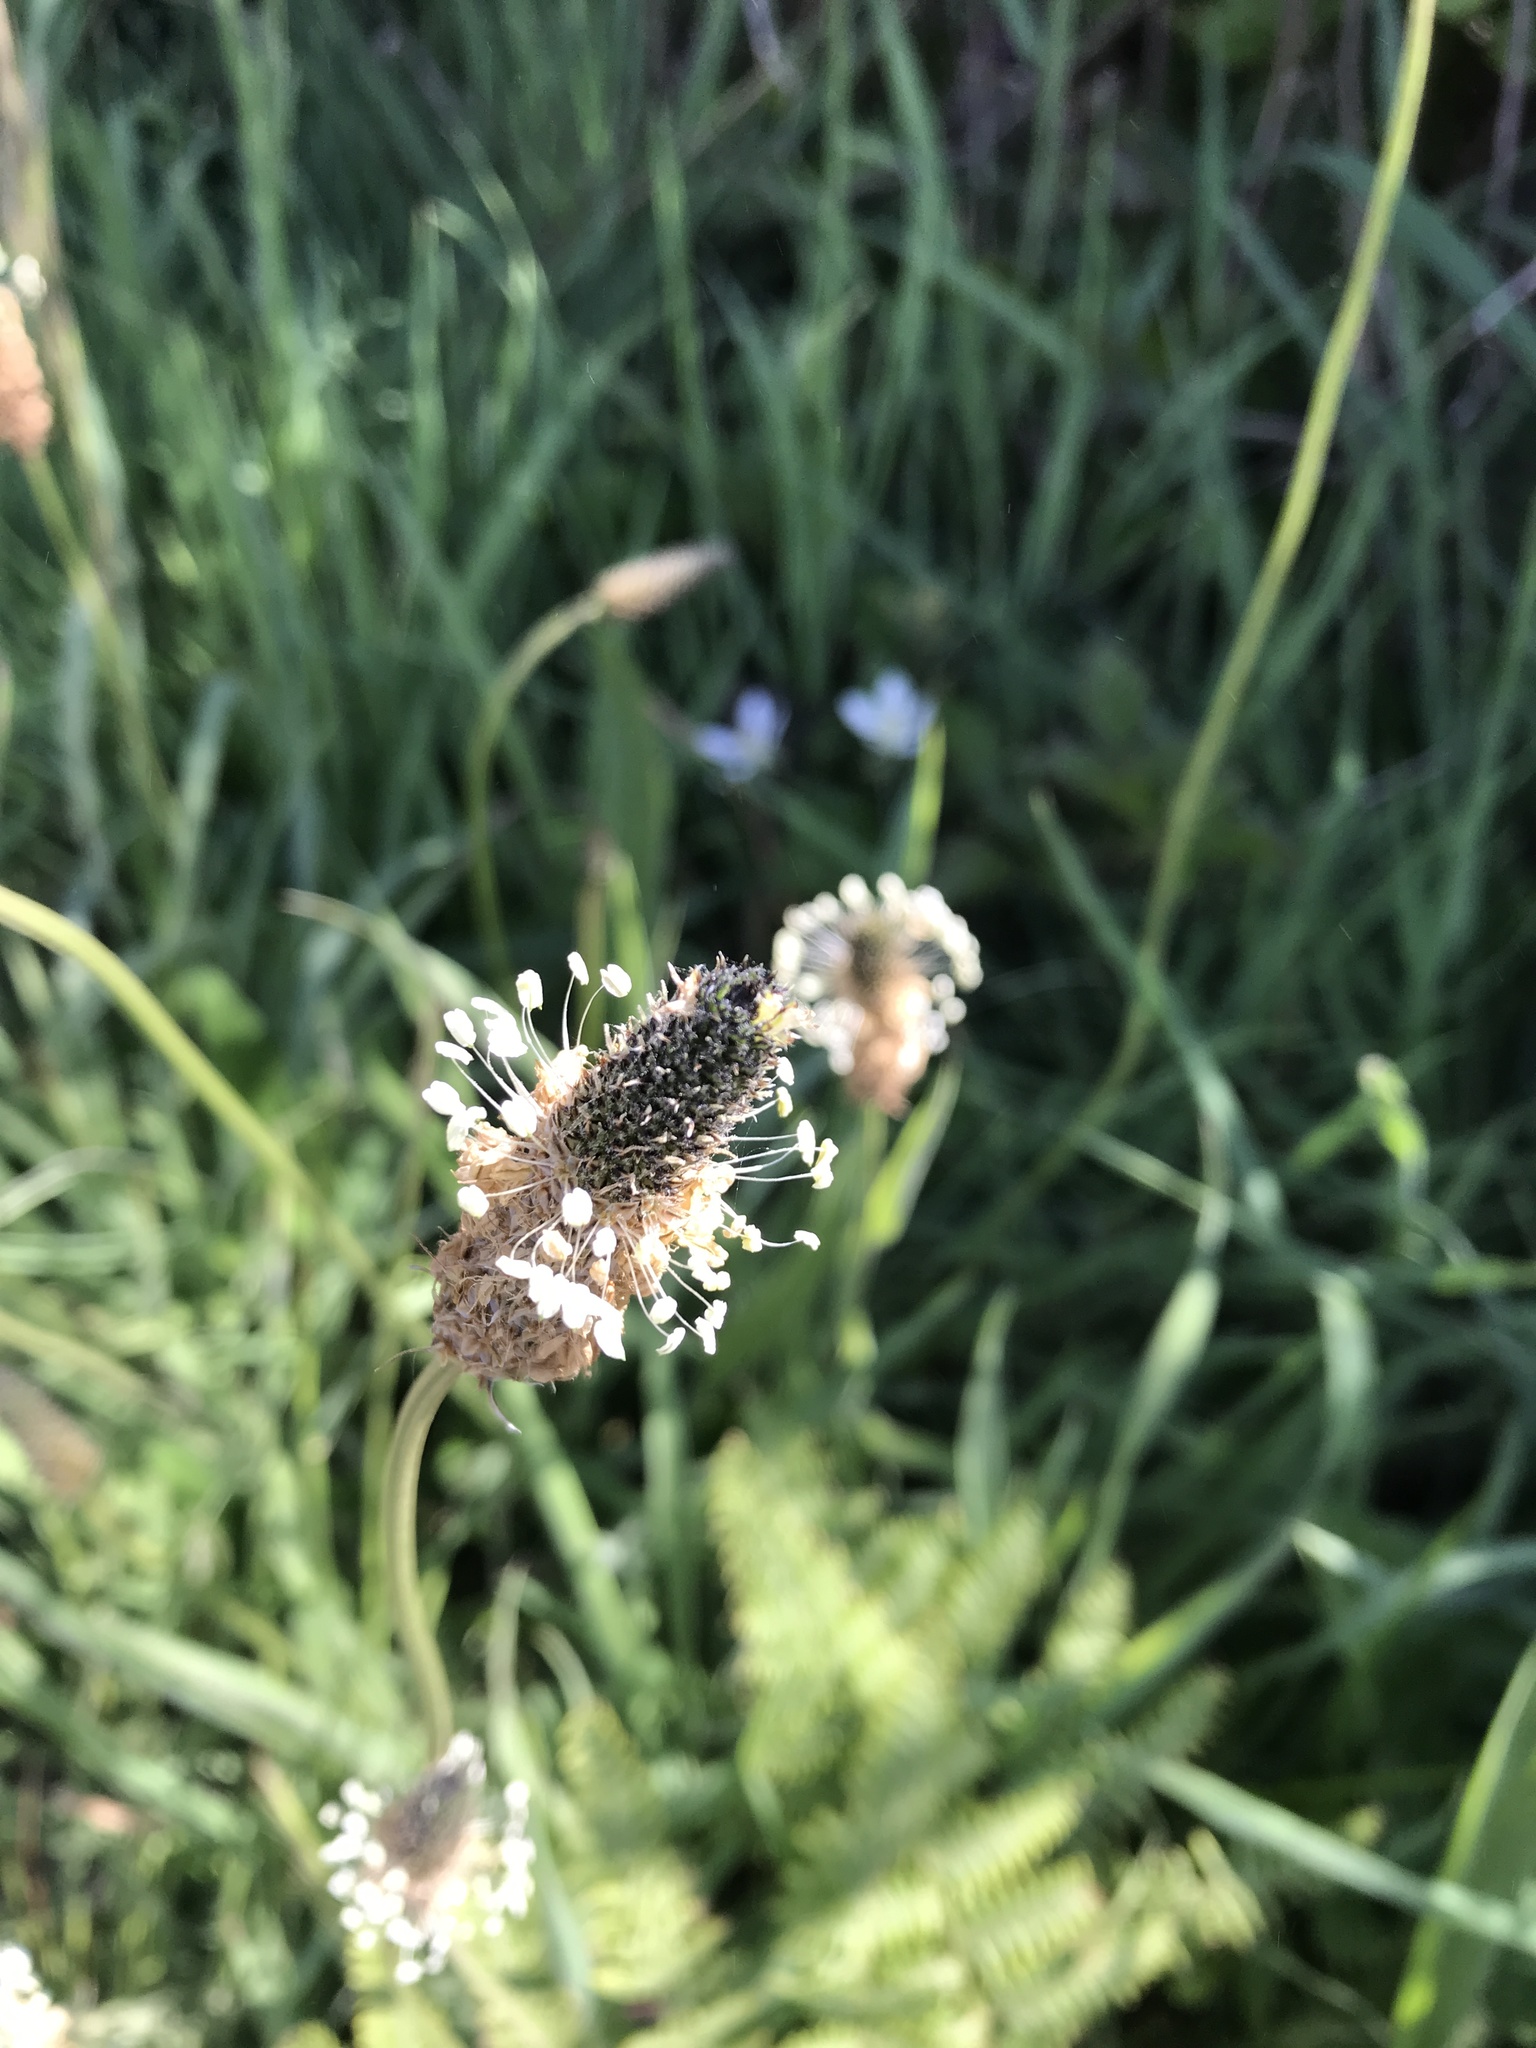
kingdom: Plantae
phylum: Tracheophyta
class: Magnoliopsida
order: Lamiales
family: Plantaginaceae
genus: Plantago
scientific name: Plantago lanceolata
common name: Ribwort plantain
